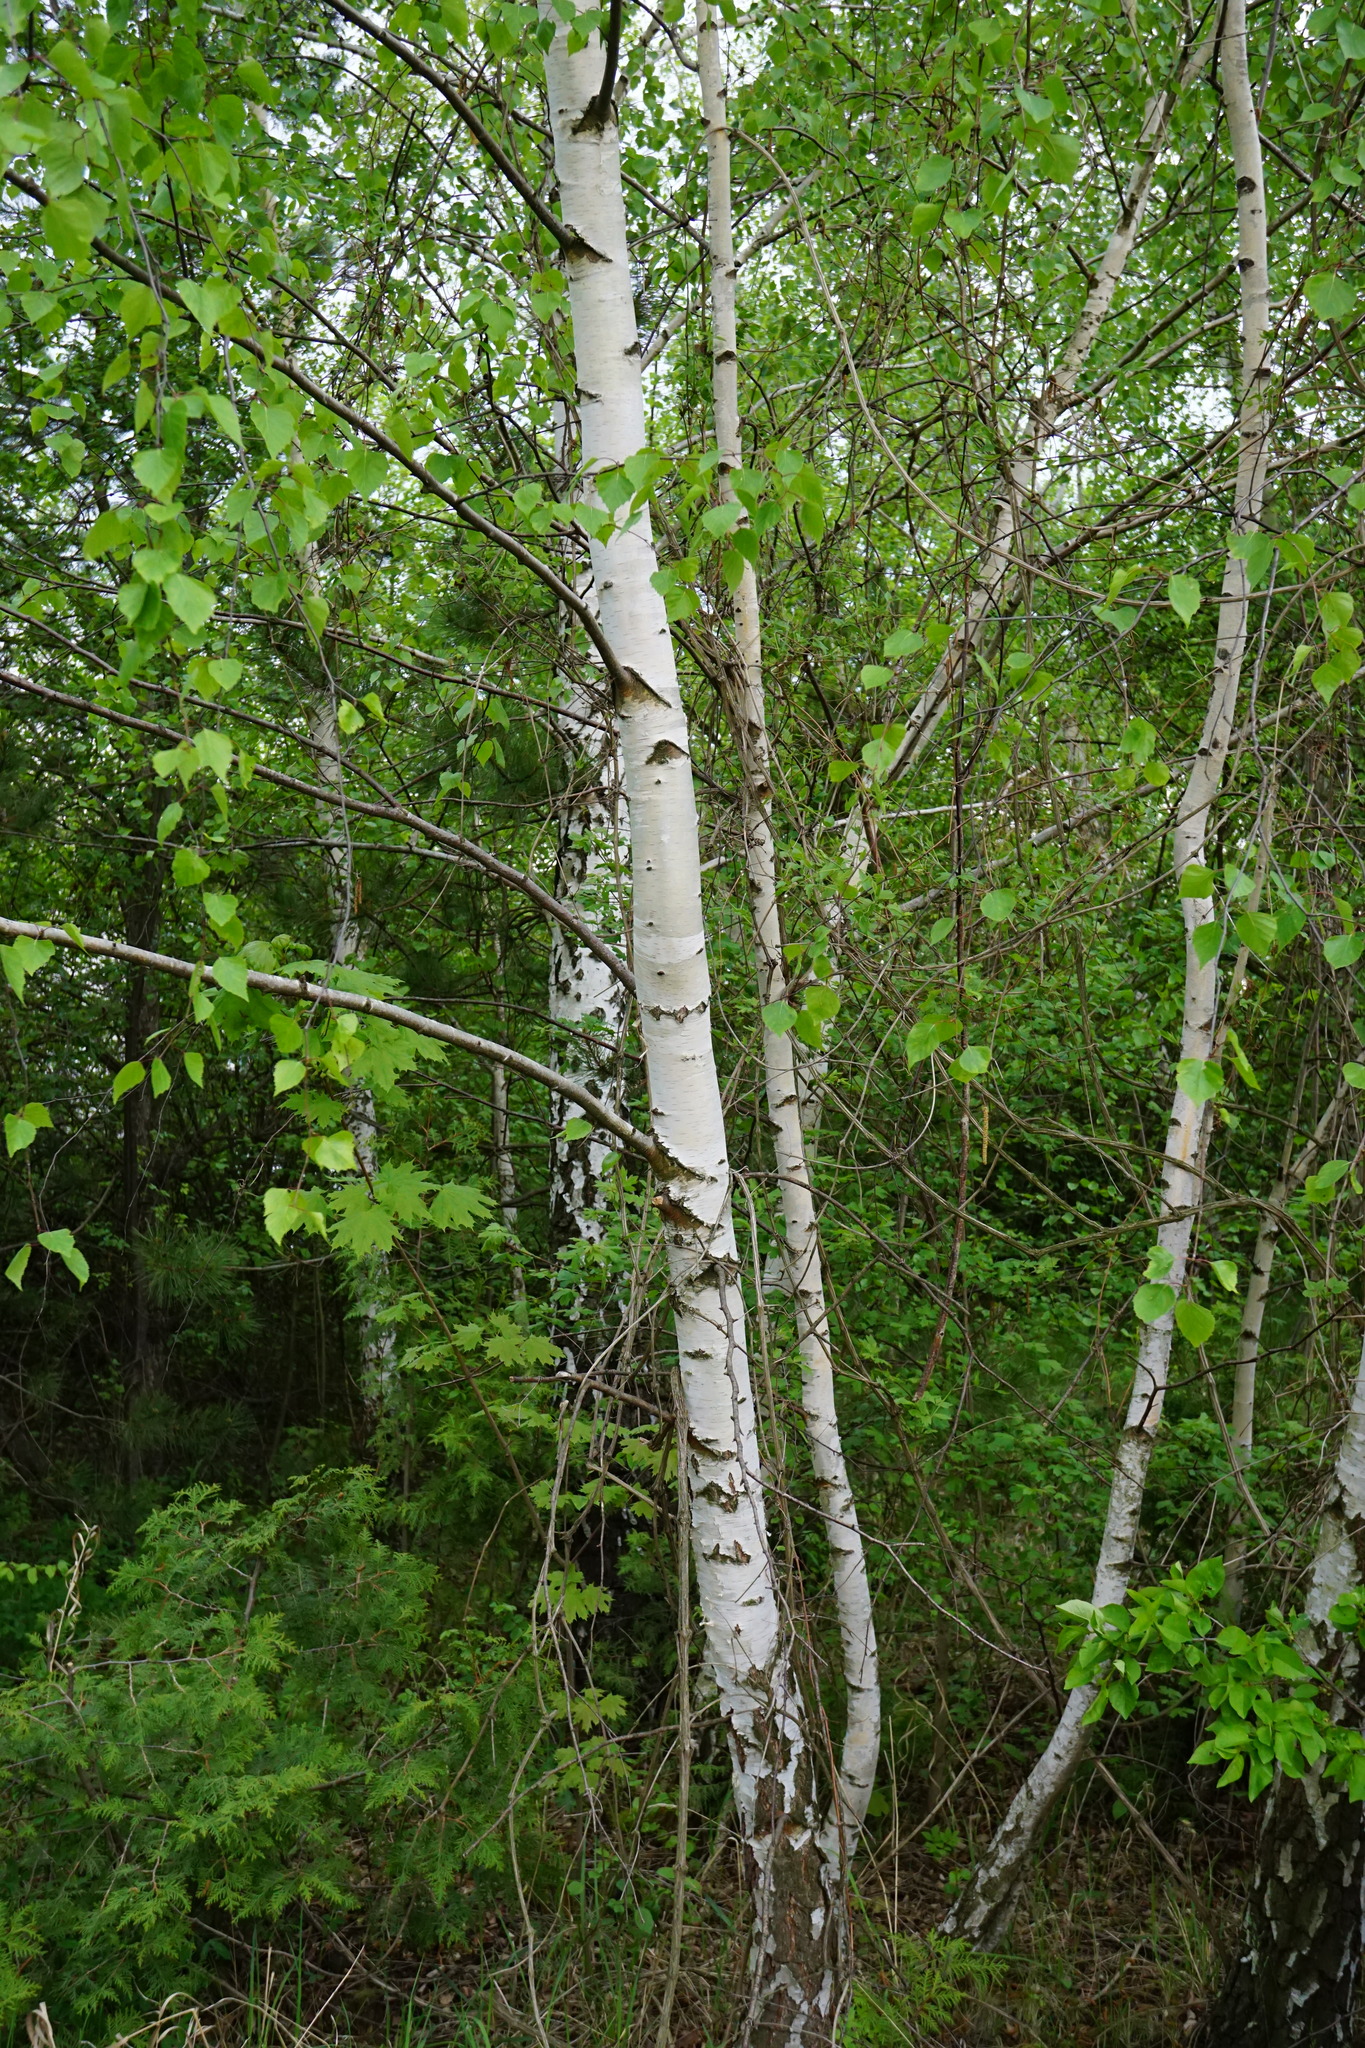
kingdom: Plantae
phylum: Tracheophyta
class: Magnoliopsida
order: Fagales
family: Betulaceae
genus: Betula
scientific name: Betula pendula
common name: Silver birch
